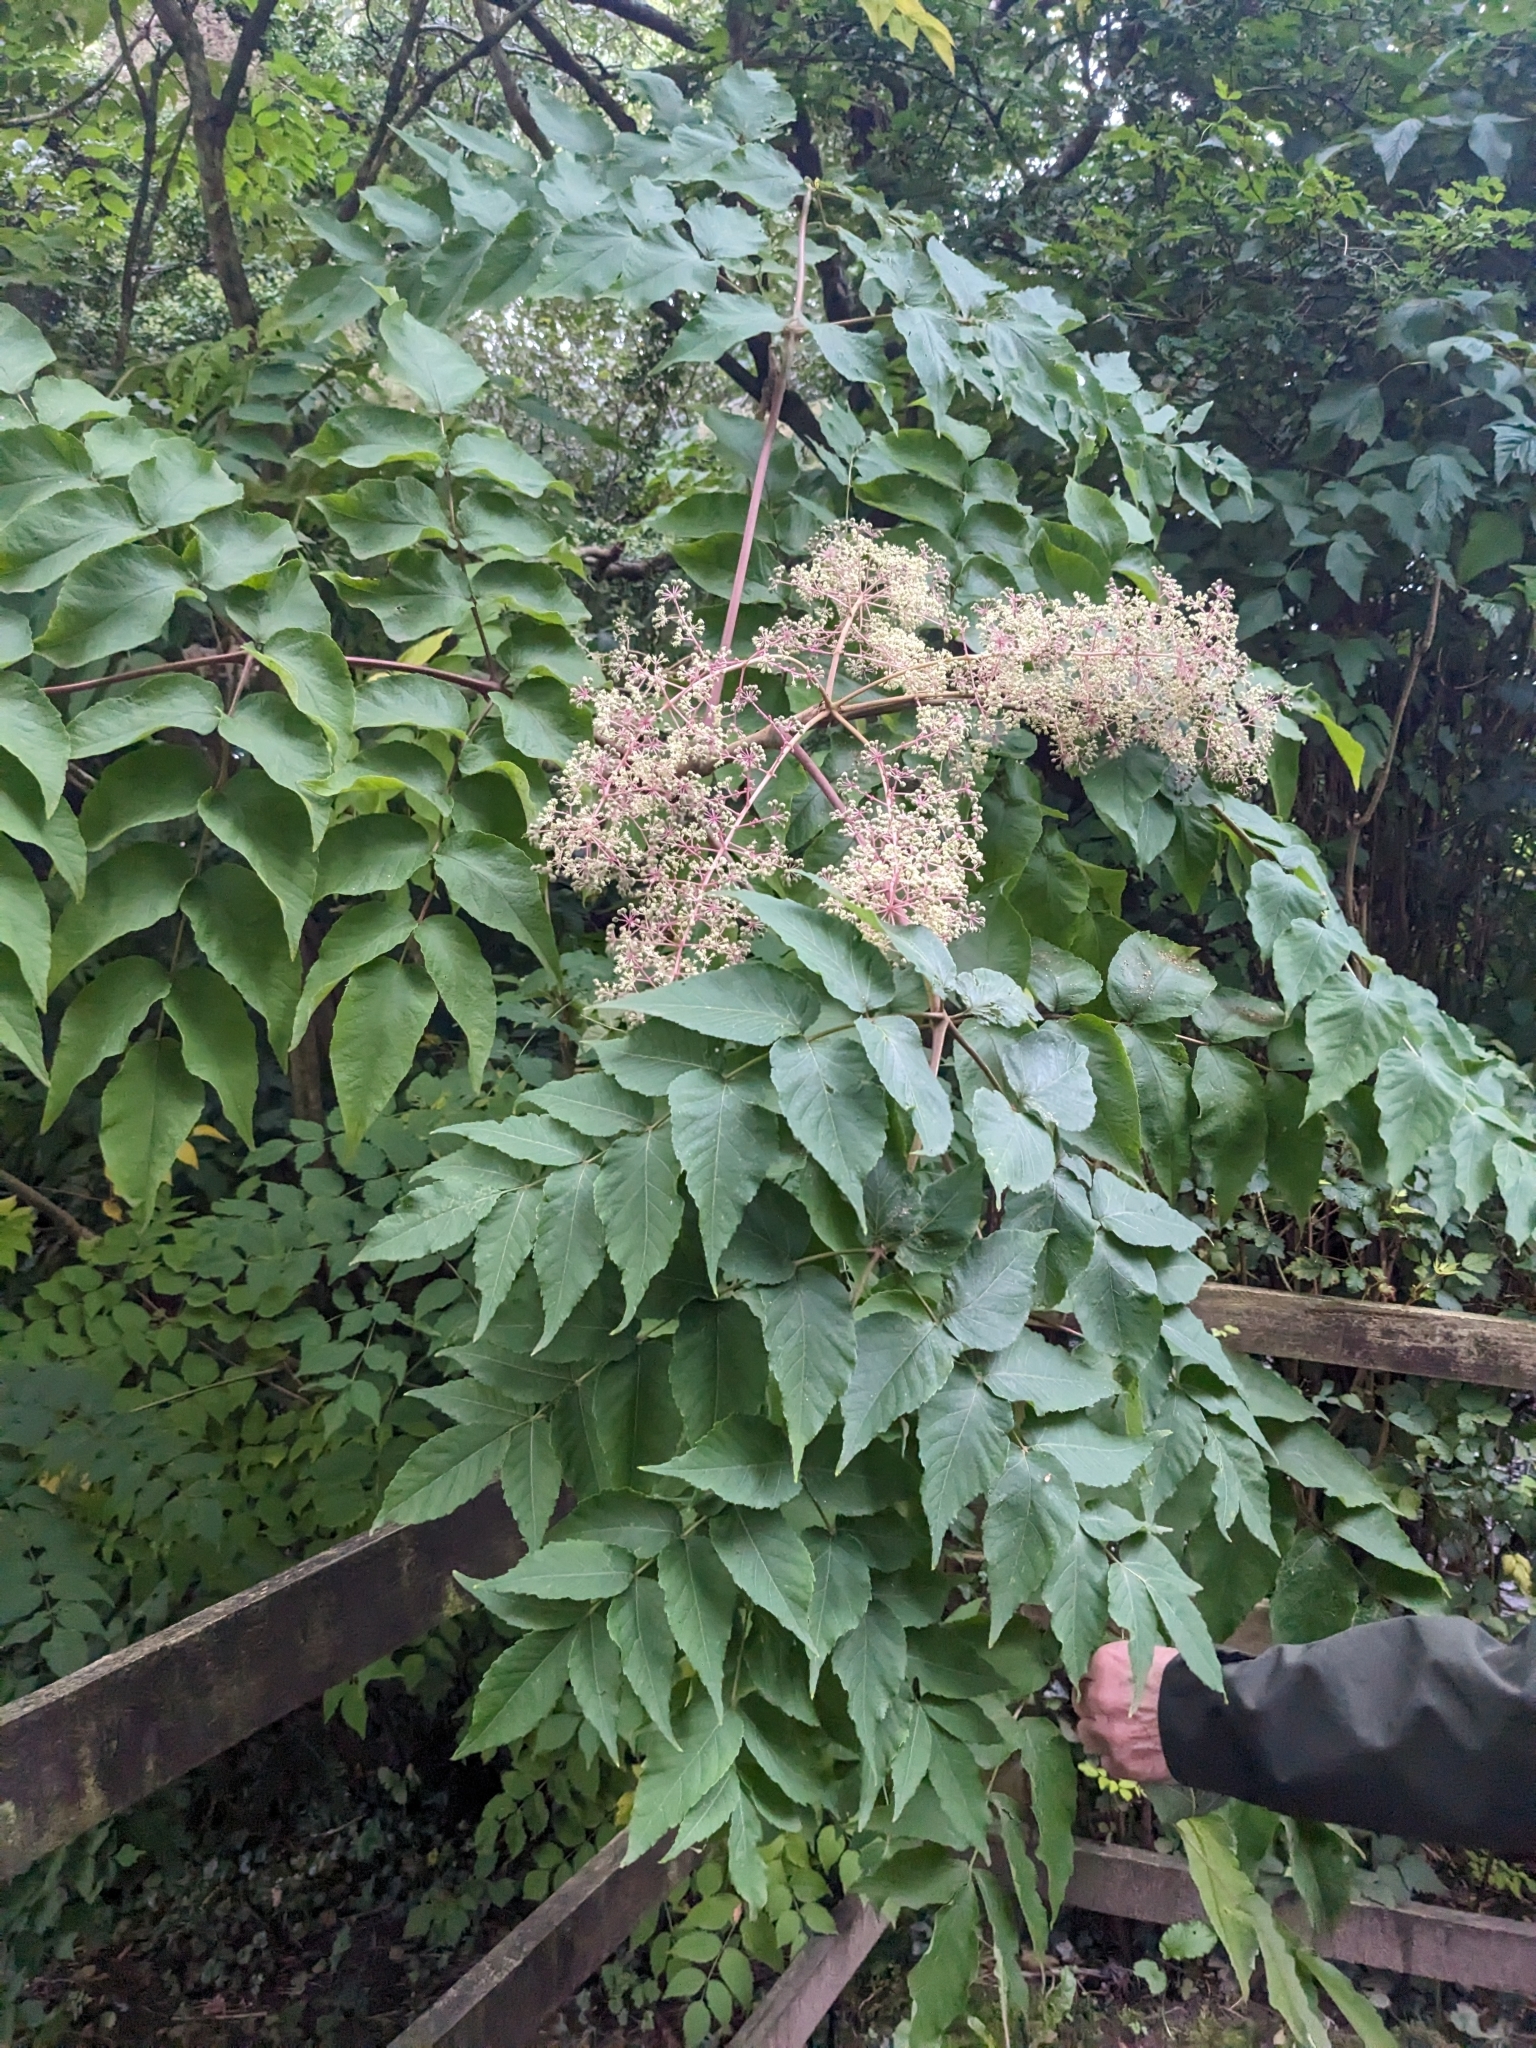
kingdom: Plantae
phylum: Tracheophyta
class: Magnoliopsida
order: Apiales
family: Araliaceae
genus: Aralia
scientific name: Aralia elata
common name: Japanese angelica-tree
